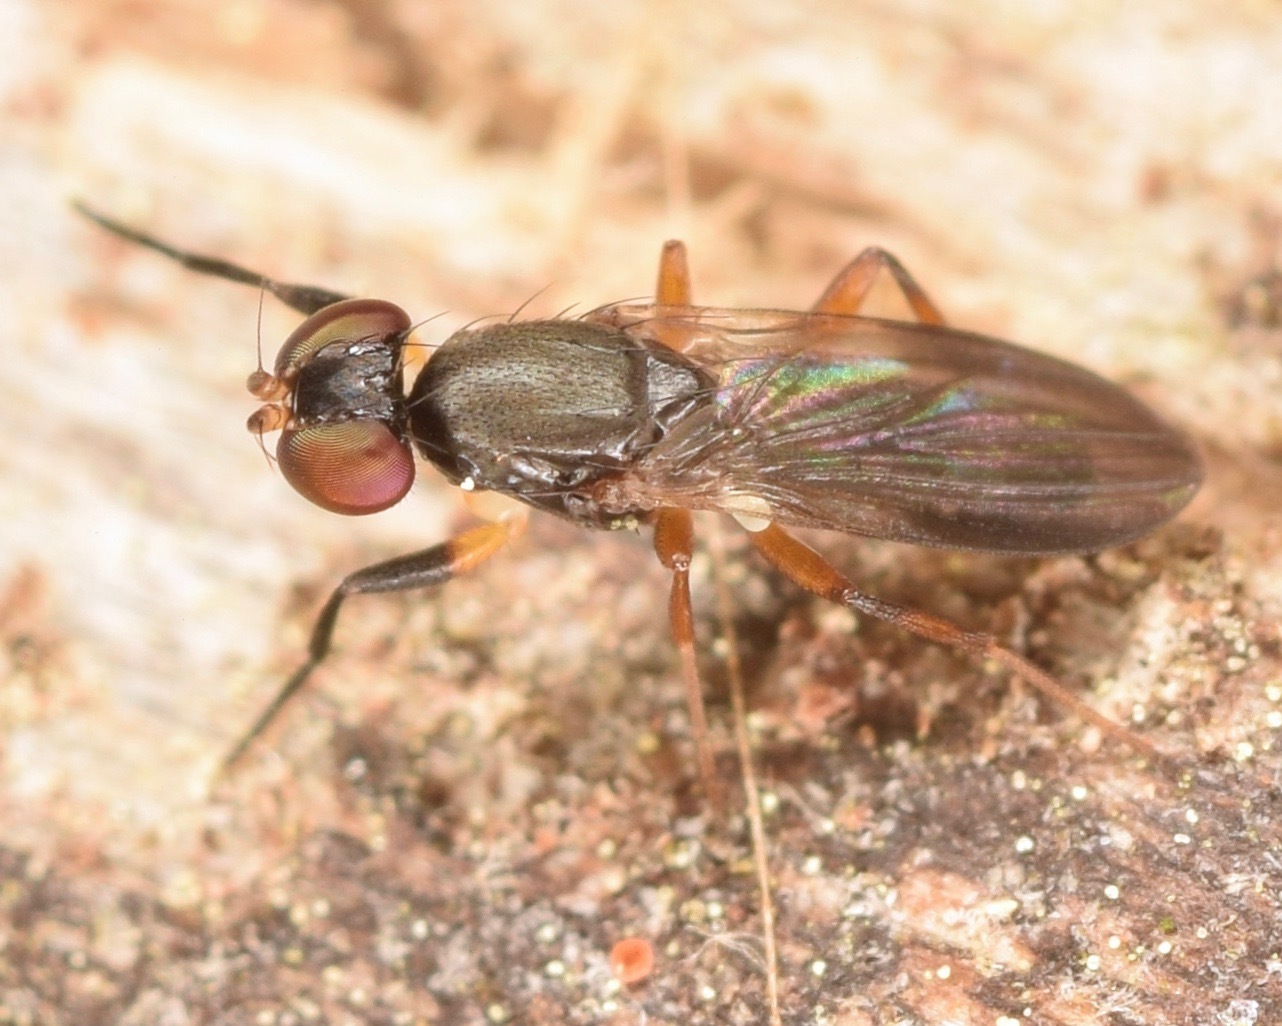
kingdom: Animalia
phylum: Arthropoda
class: Insecta
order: Diptera
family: Clusiidae
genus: Heteromeringia
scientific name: Heteromeringia nitida
